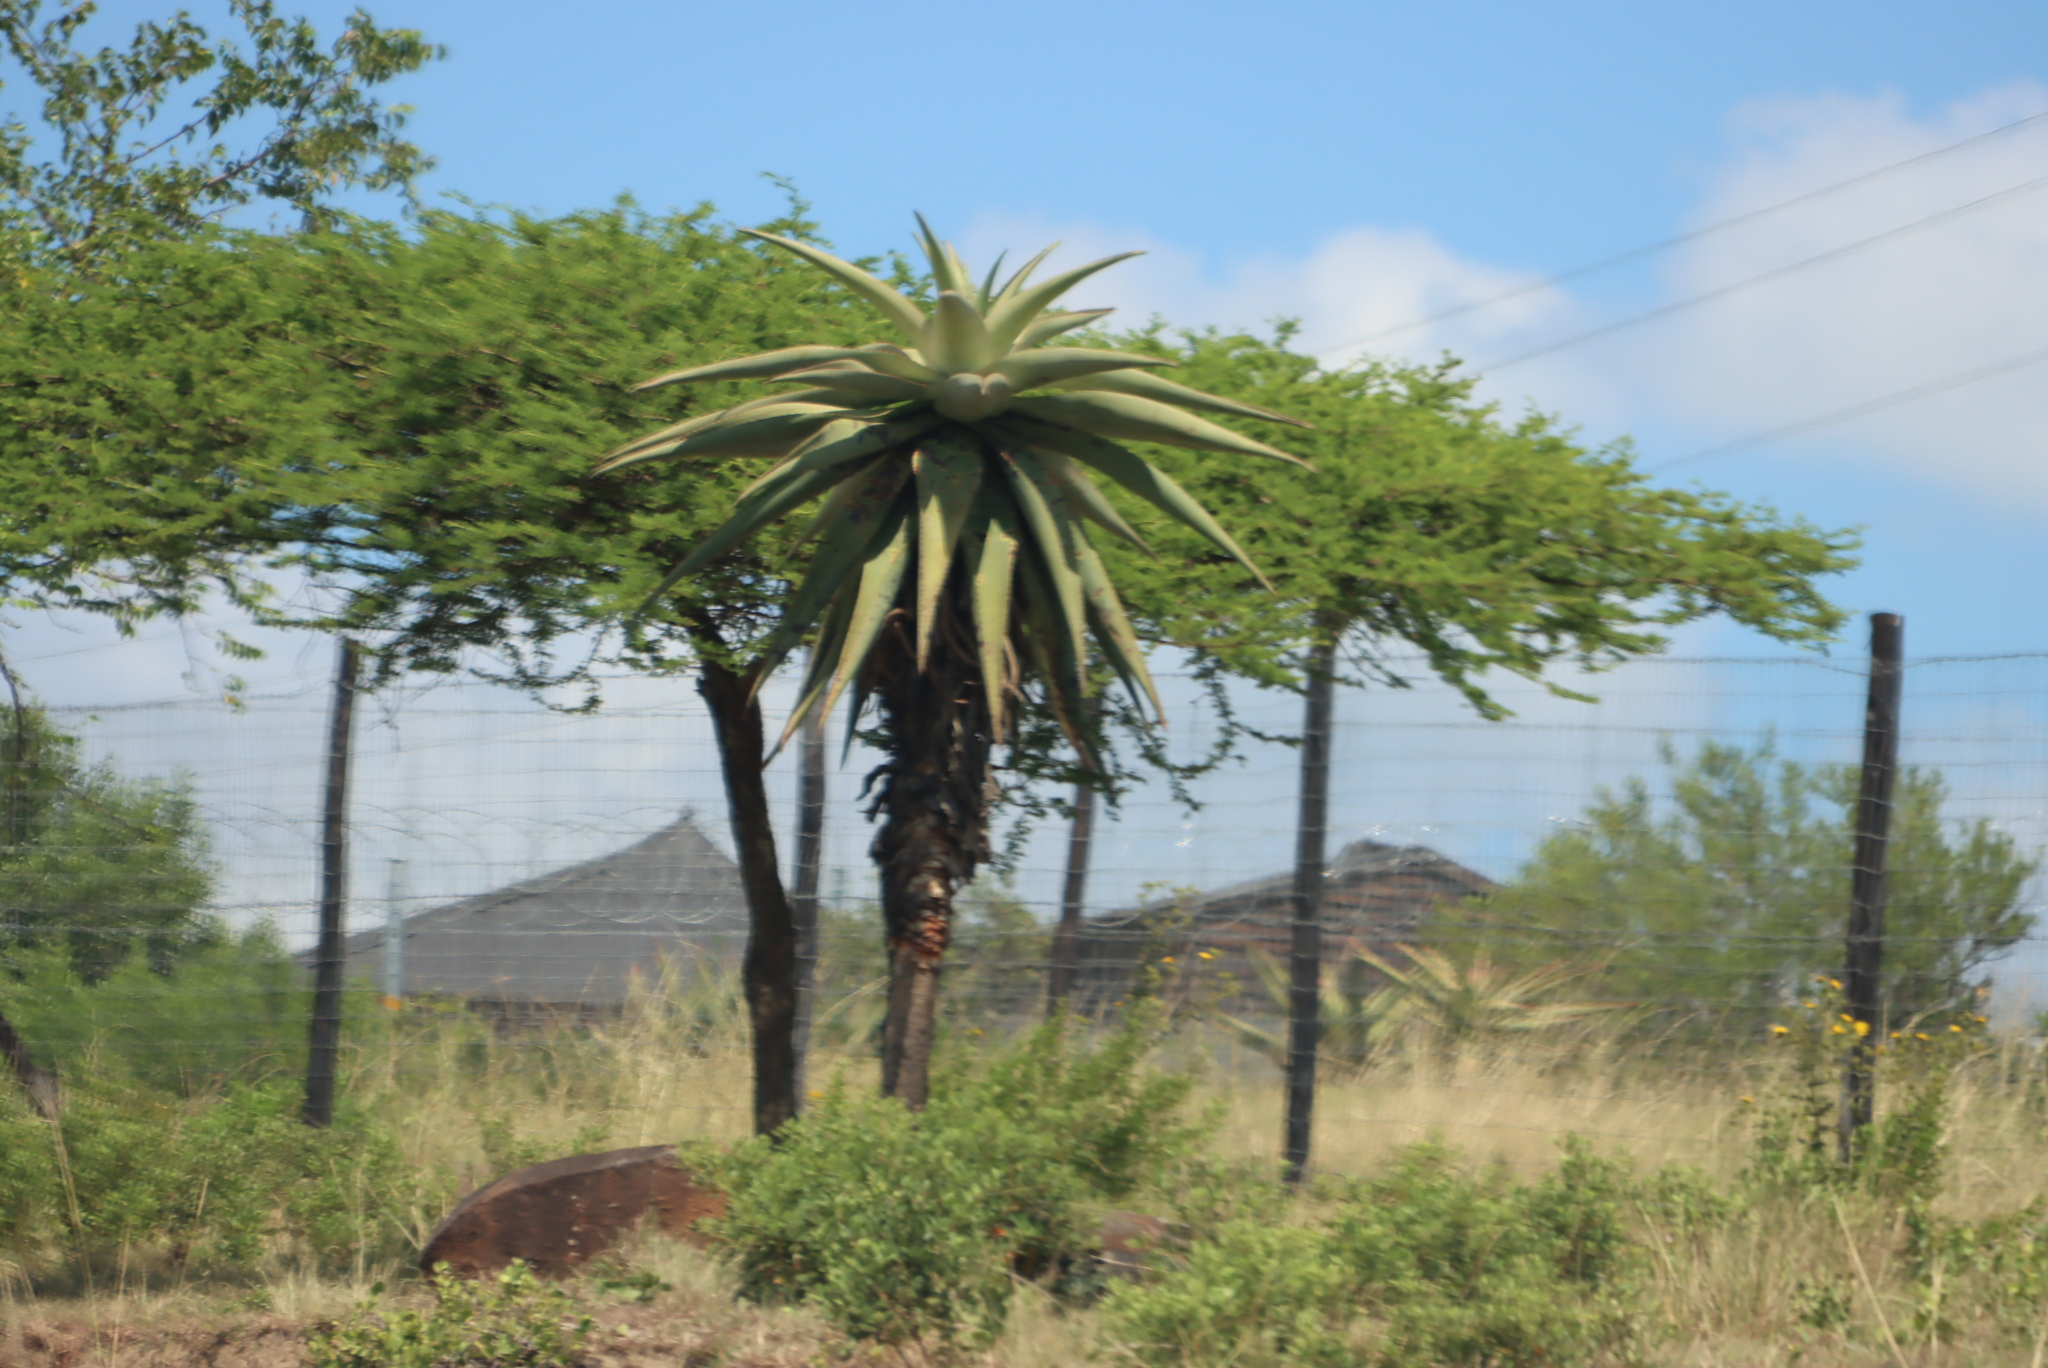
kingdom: Plantae
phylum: Tracheophyta
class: Liliopsida
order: Asparagales
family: Asphodelaceae
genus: Aloe
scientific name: Aloe marlothii
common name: Flat-flowered aloe
